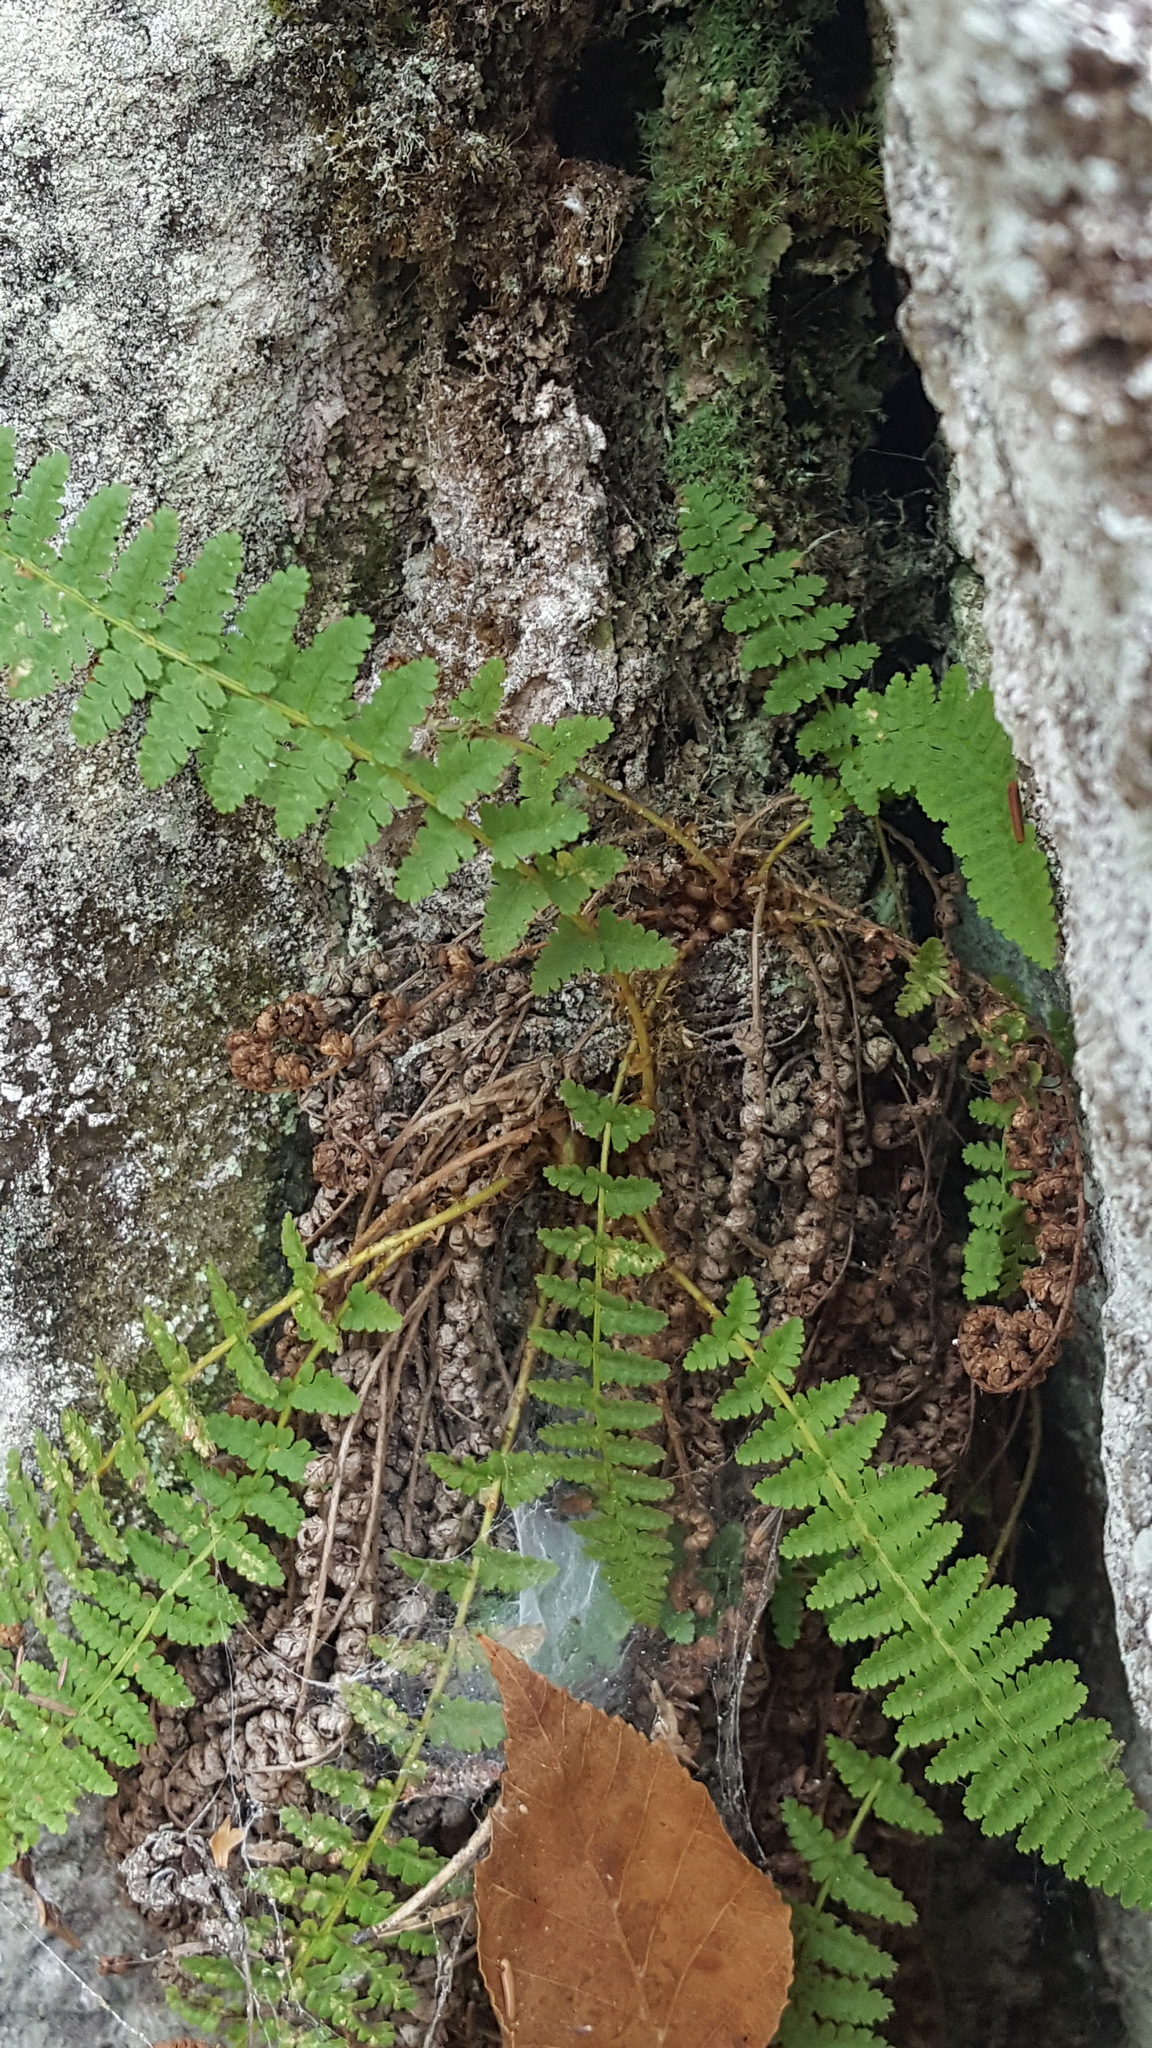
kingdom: Plantae
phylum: Tracheophyta
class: Polypodiopsida
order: Polypodiales
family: Dryopteridaceae
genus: Dryopteris
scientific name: Dryopteris fragrans
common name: Fragrant wood fern
